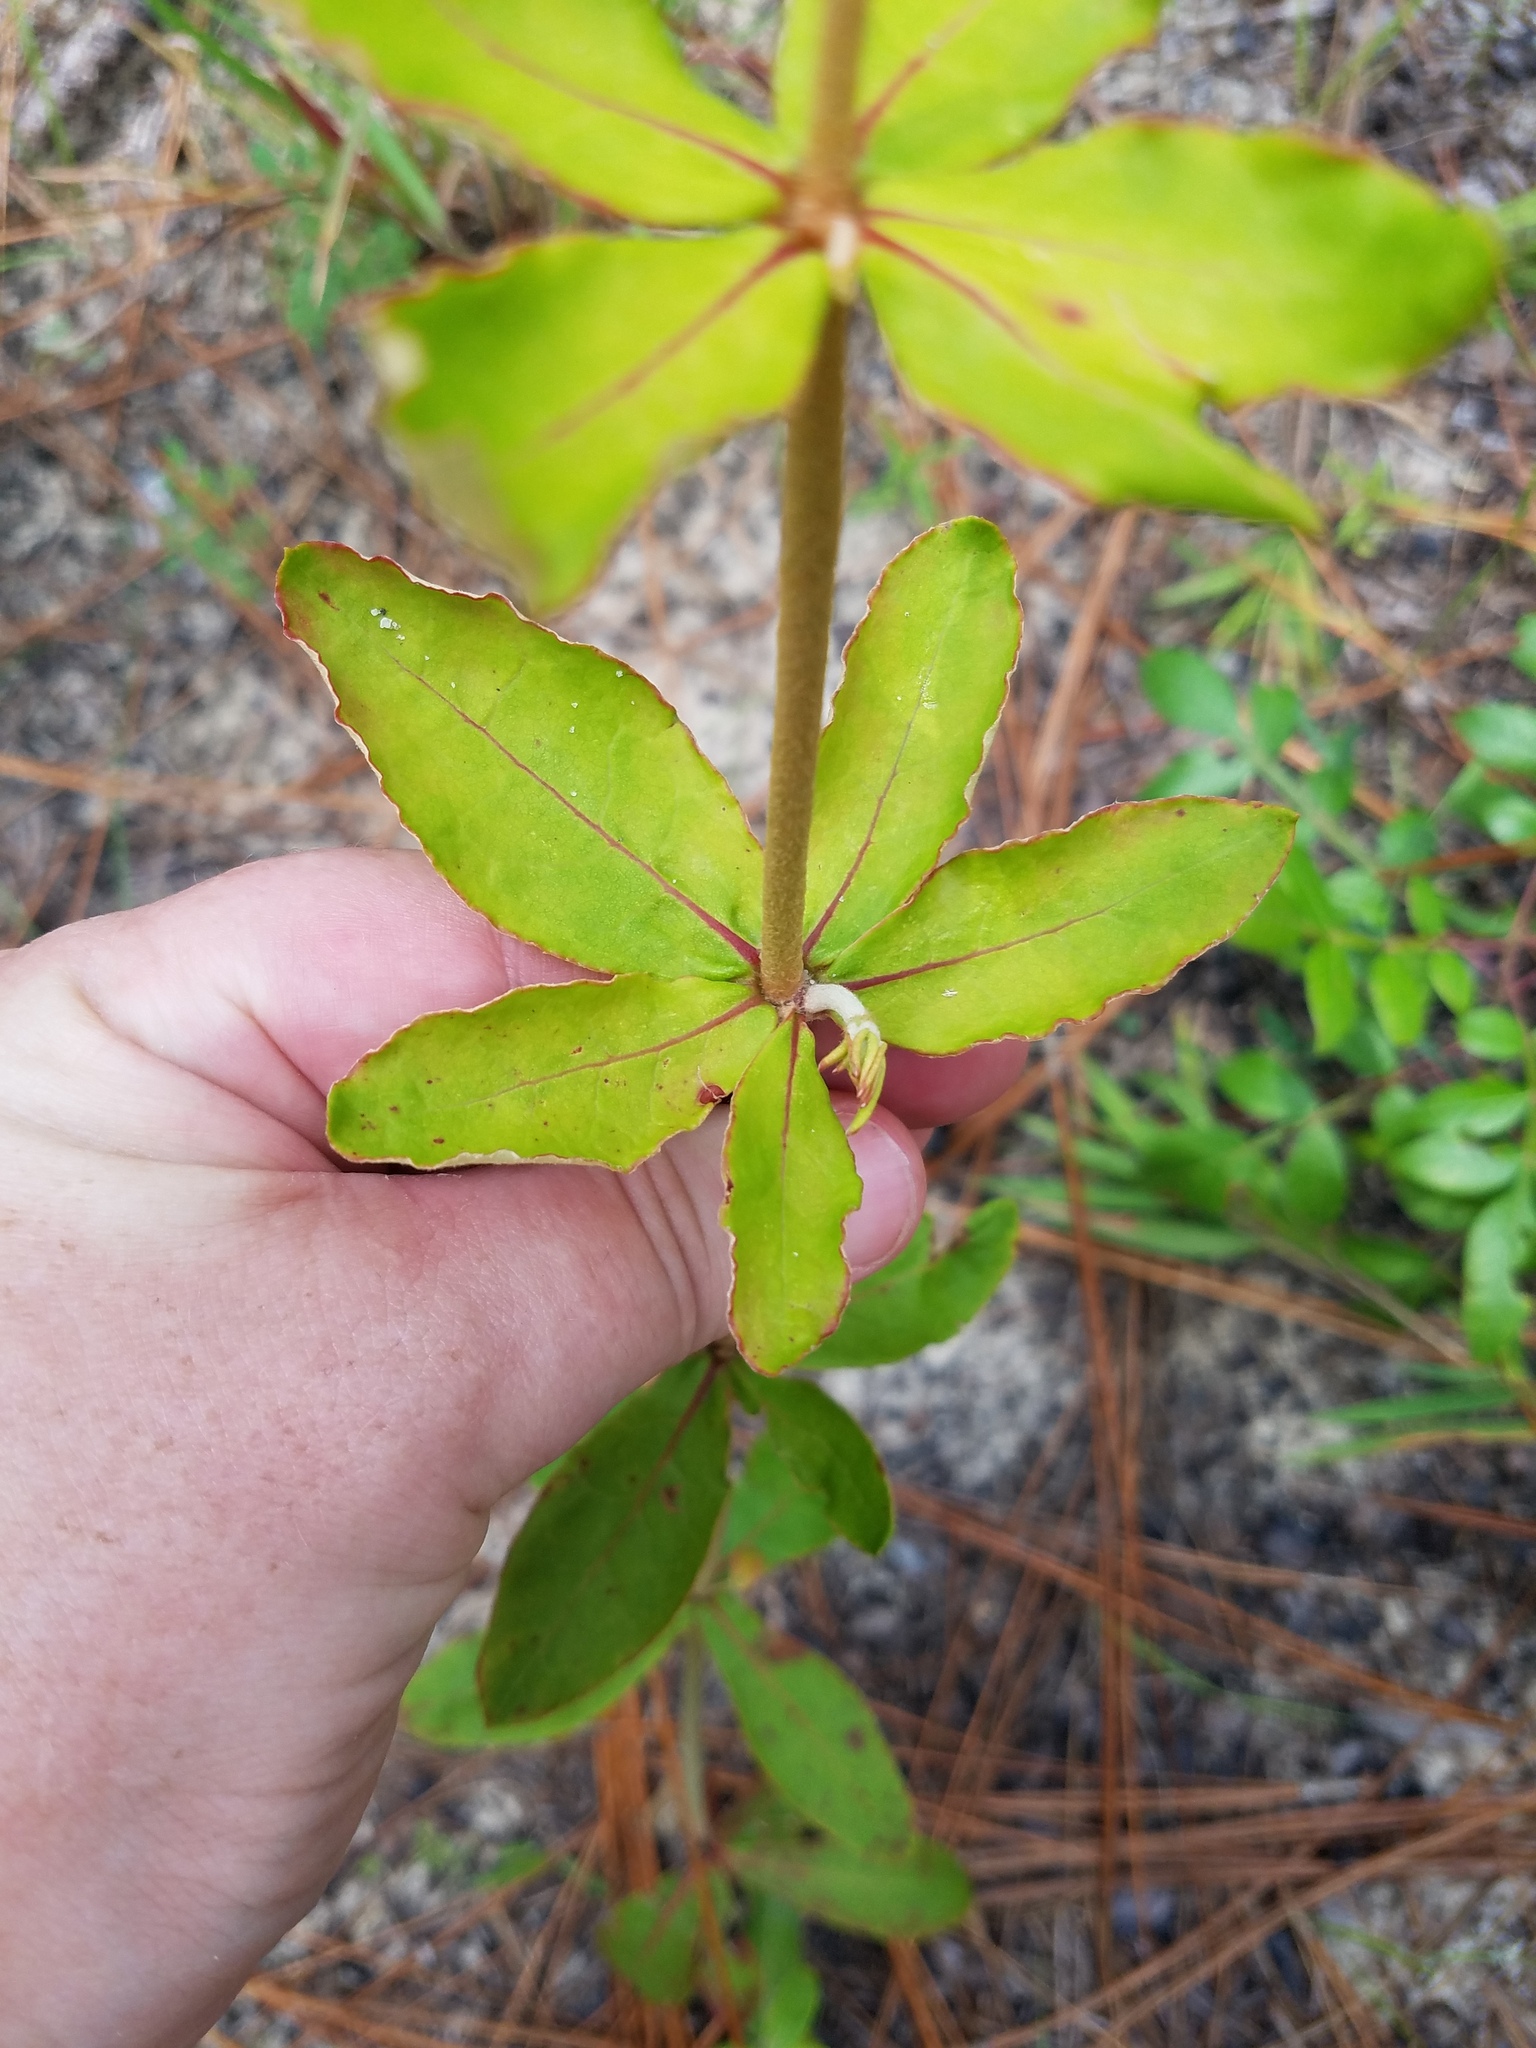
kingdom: Plantae
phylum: Tracheophyta
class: Magnoliopsida
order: Caryophyllales
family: Polygonaceae
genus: Eriogonum
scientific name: Eriogonum tomentosum
